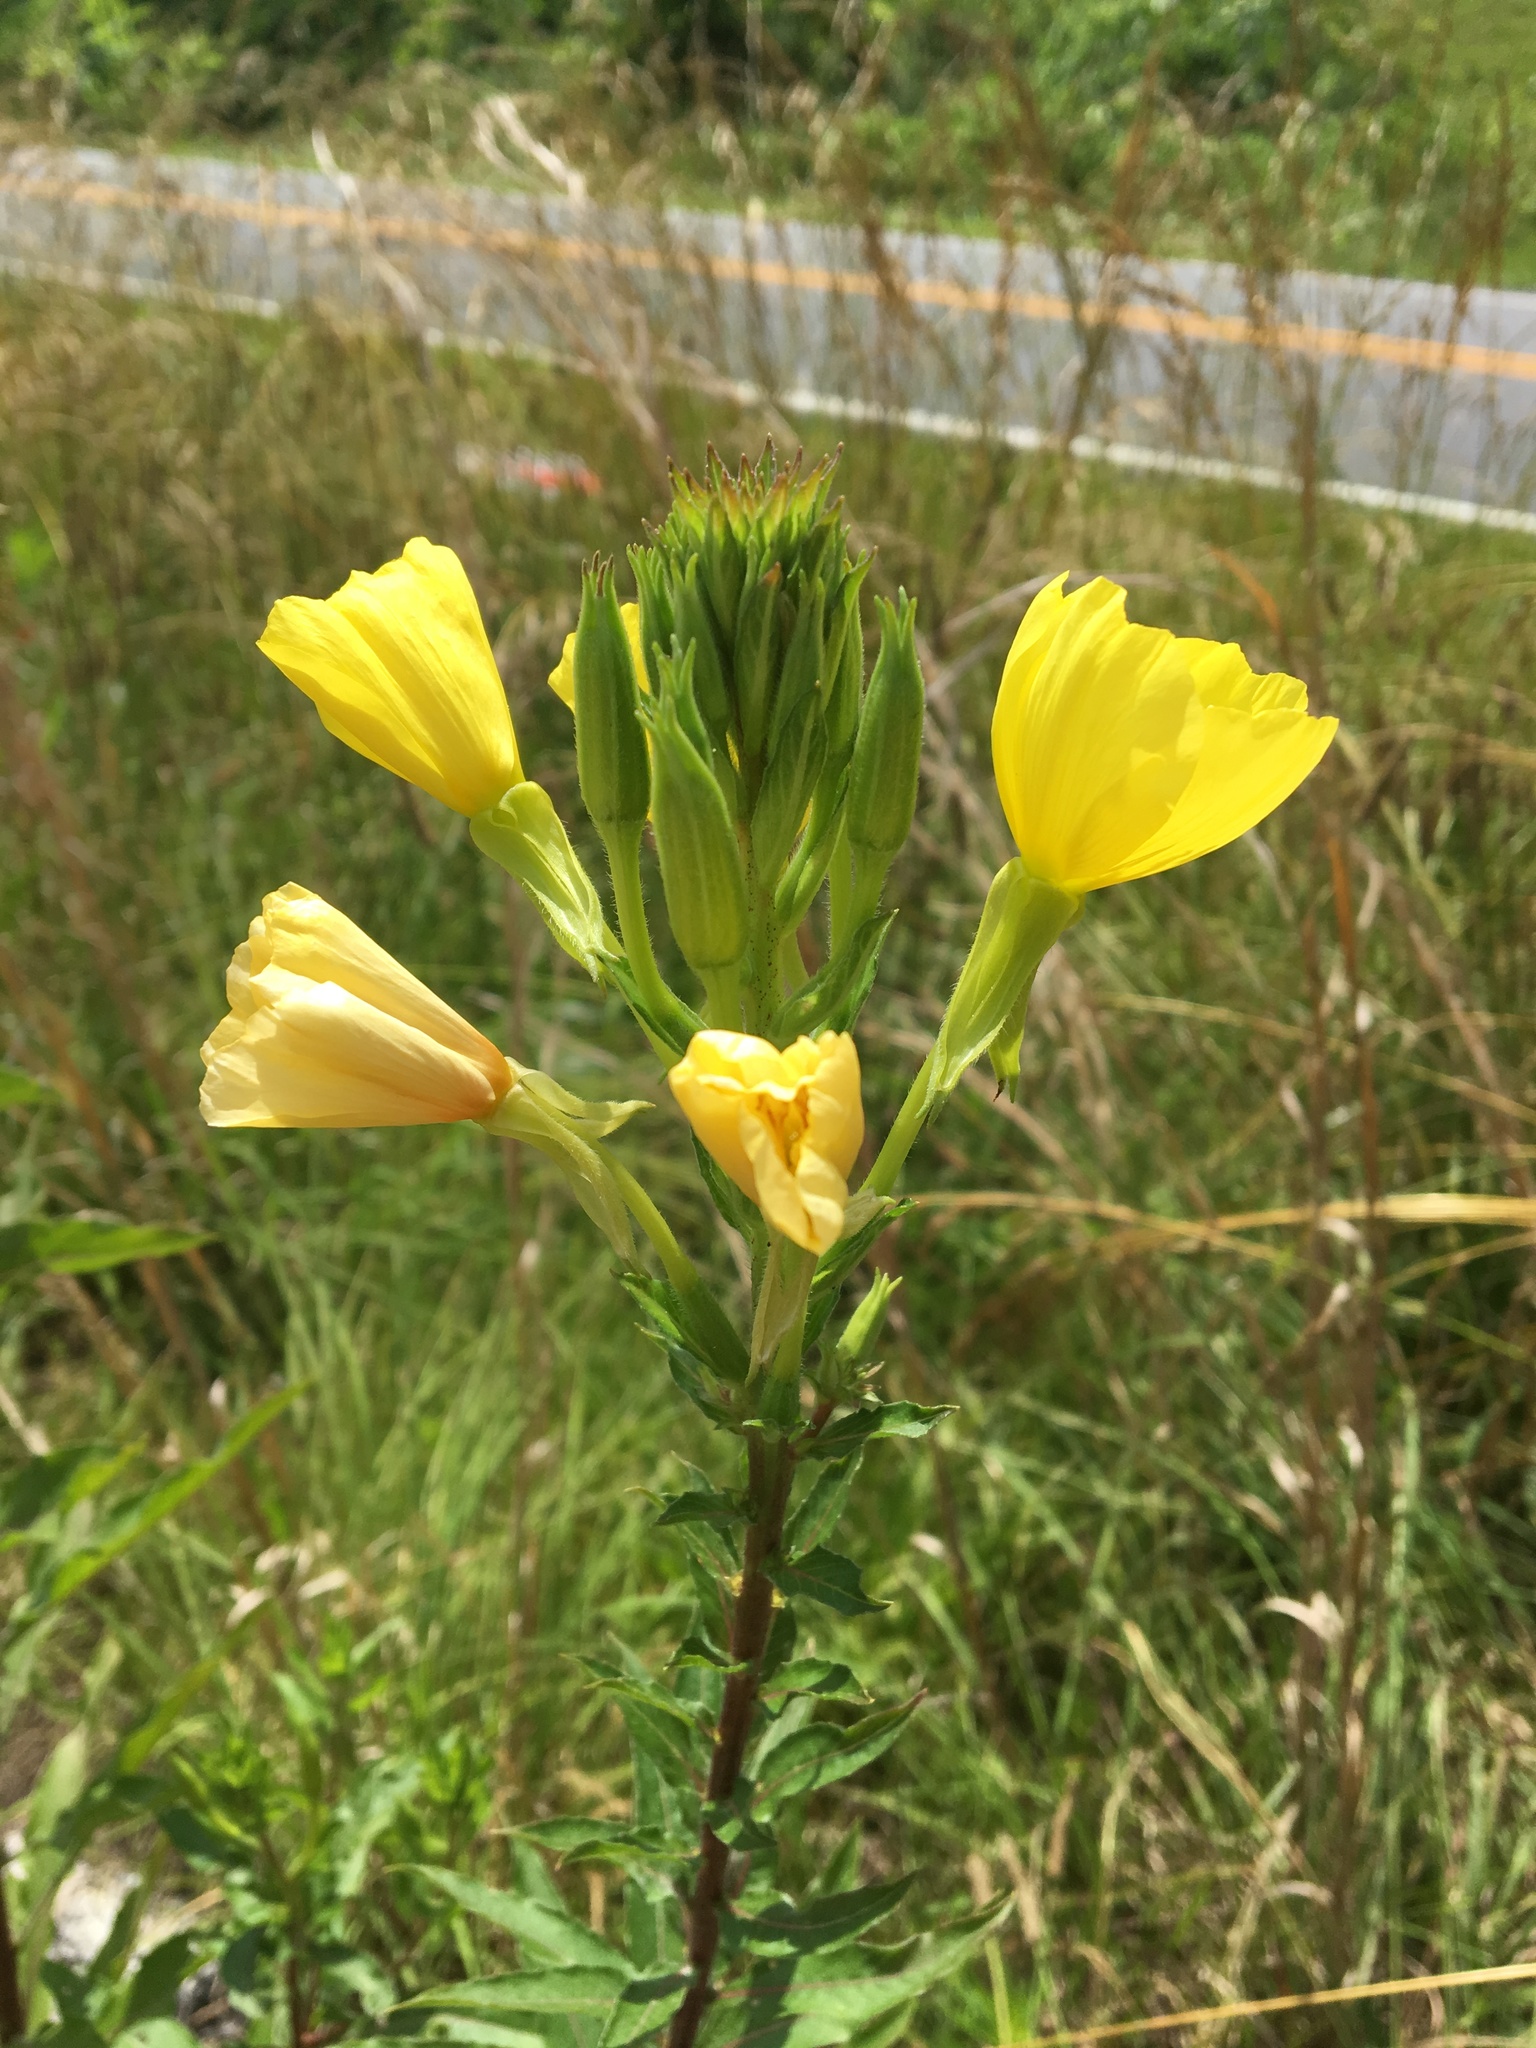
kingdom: Plantae
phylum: Tracheophyta
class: Magnoliopsida
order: Myrtales
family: Onagraceae
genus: Oenothera
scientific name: Oenothera biennis
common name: Common evening-primrose
